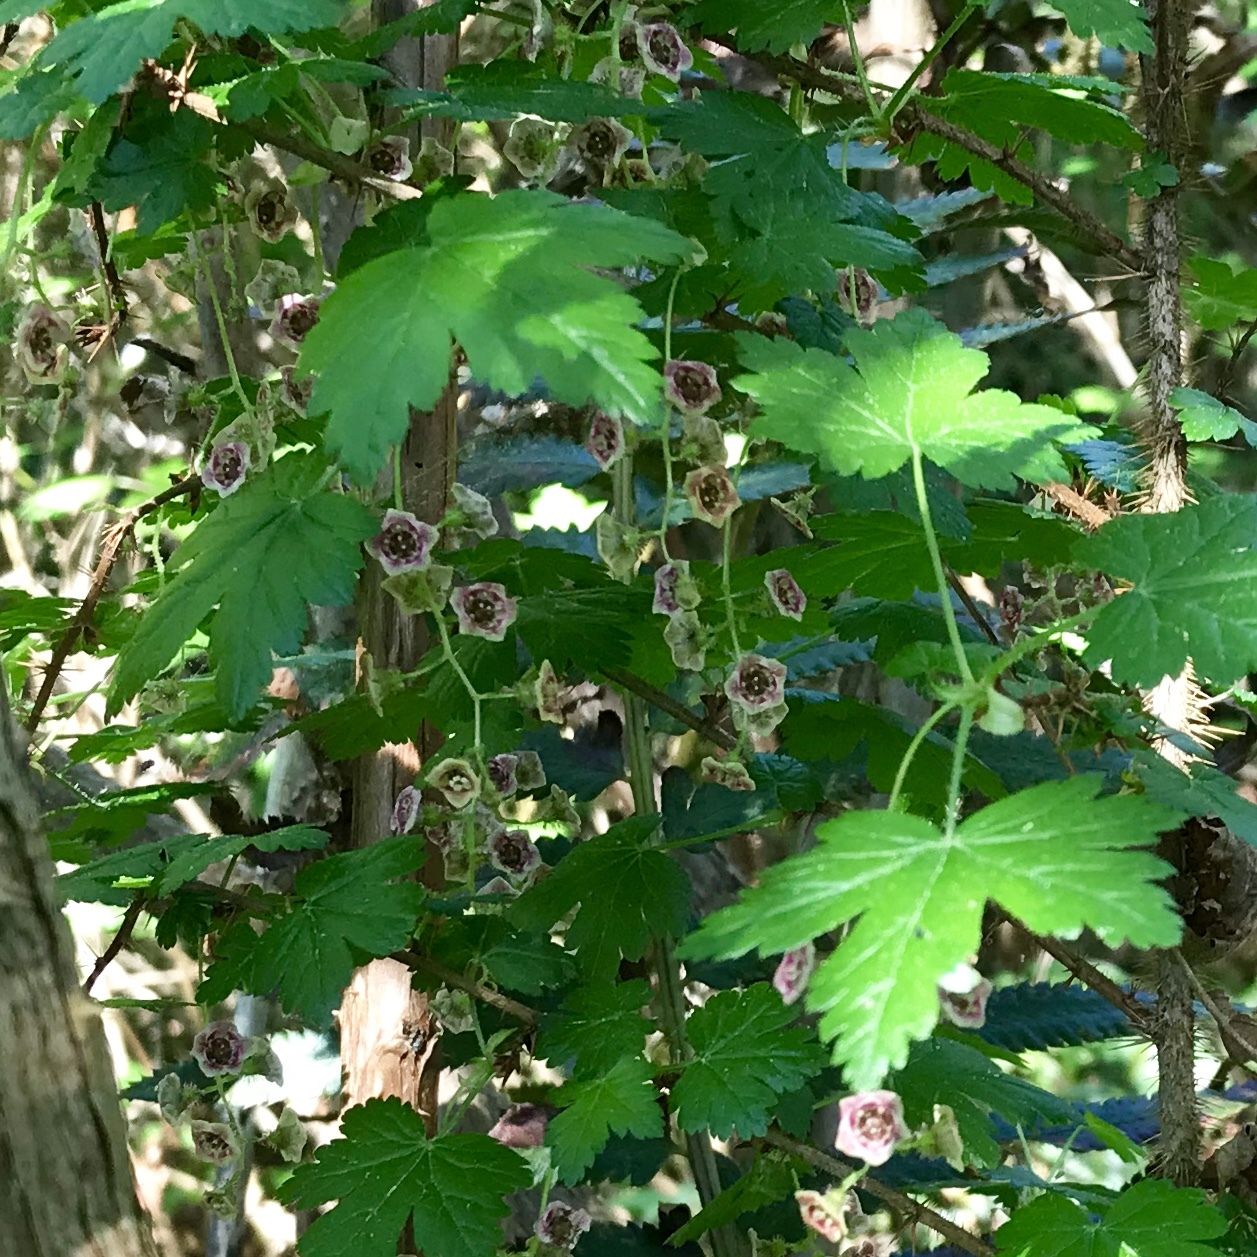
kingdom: Plantae
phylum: Tracheophyta
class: Magnoliopsida
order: Saxifragales
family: Grossulariaceae
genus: Ribes
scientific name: Ribes lacustre
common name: Black gooseberry
